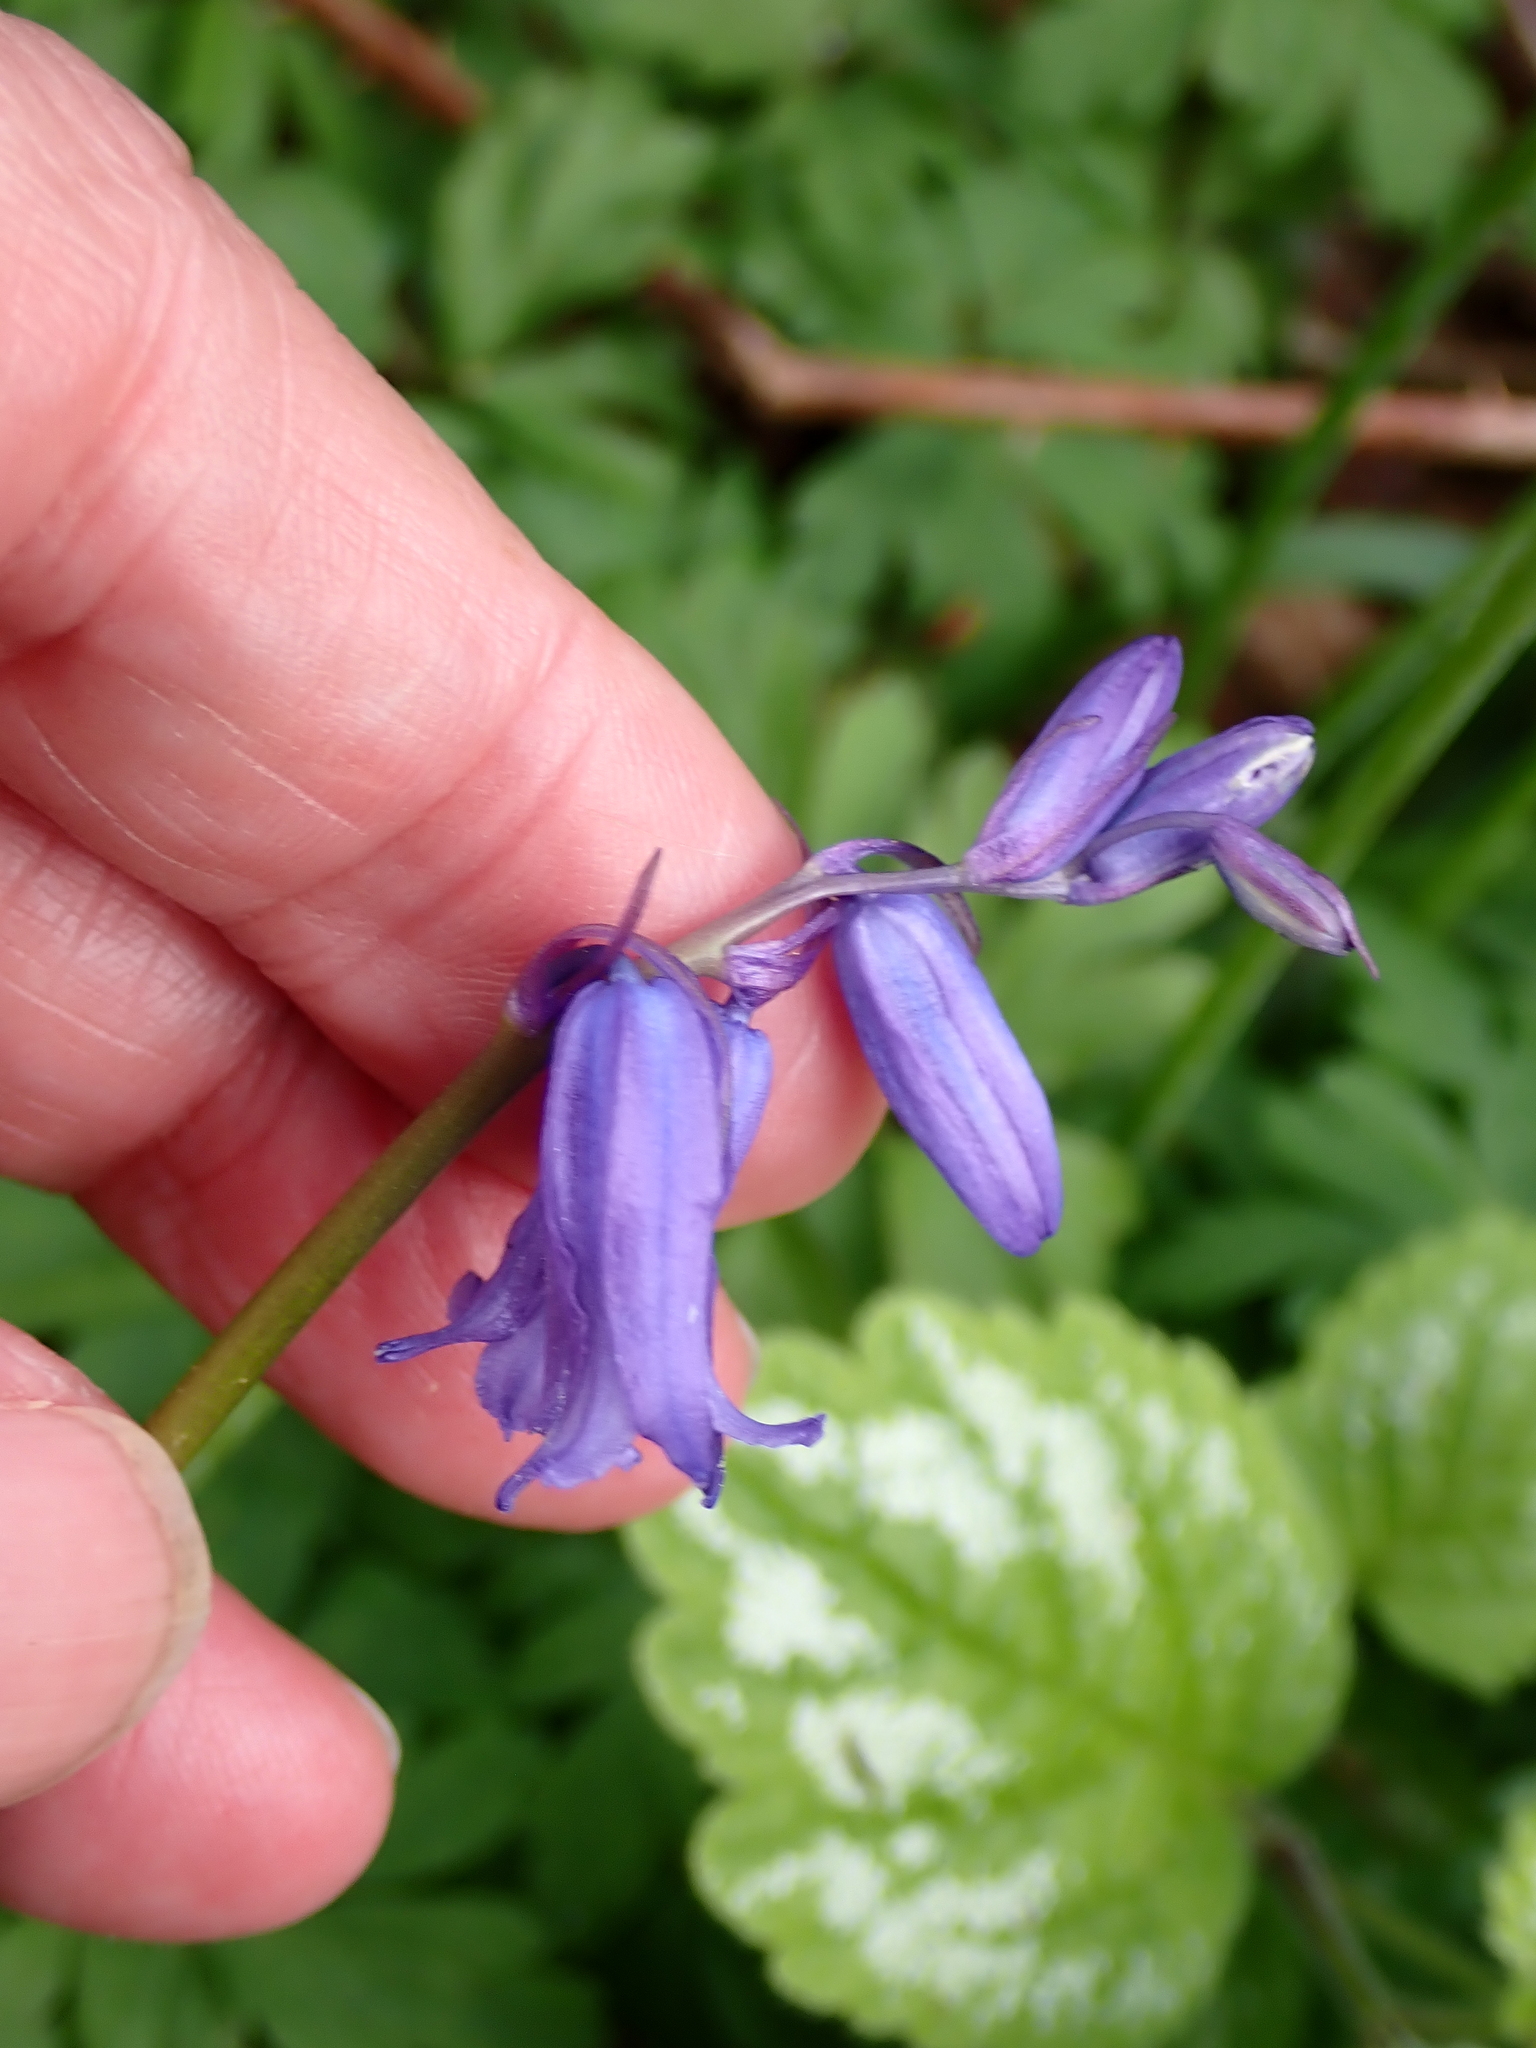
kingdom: Plantae
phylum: Tracheophyta
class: Liliopsida
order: Asparagales
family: Asparagaceae
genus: Hyacinthoides
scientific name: Hyacinthoides non-scripta
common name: Bluebell
